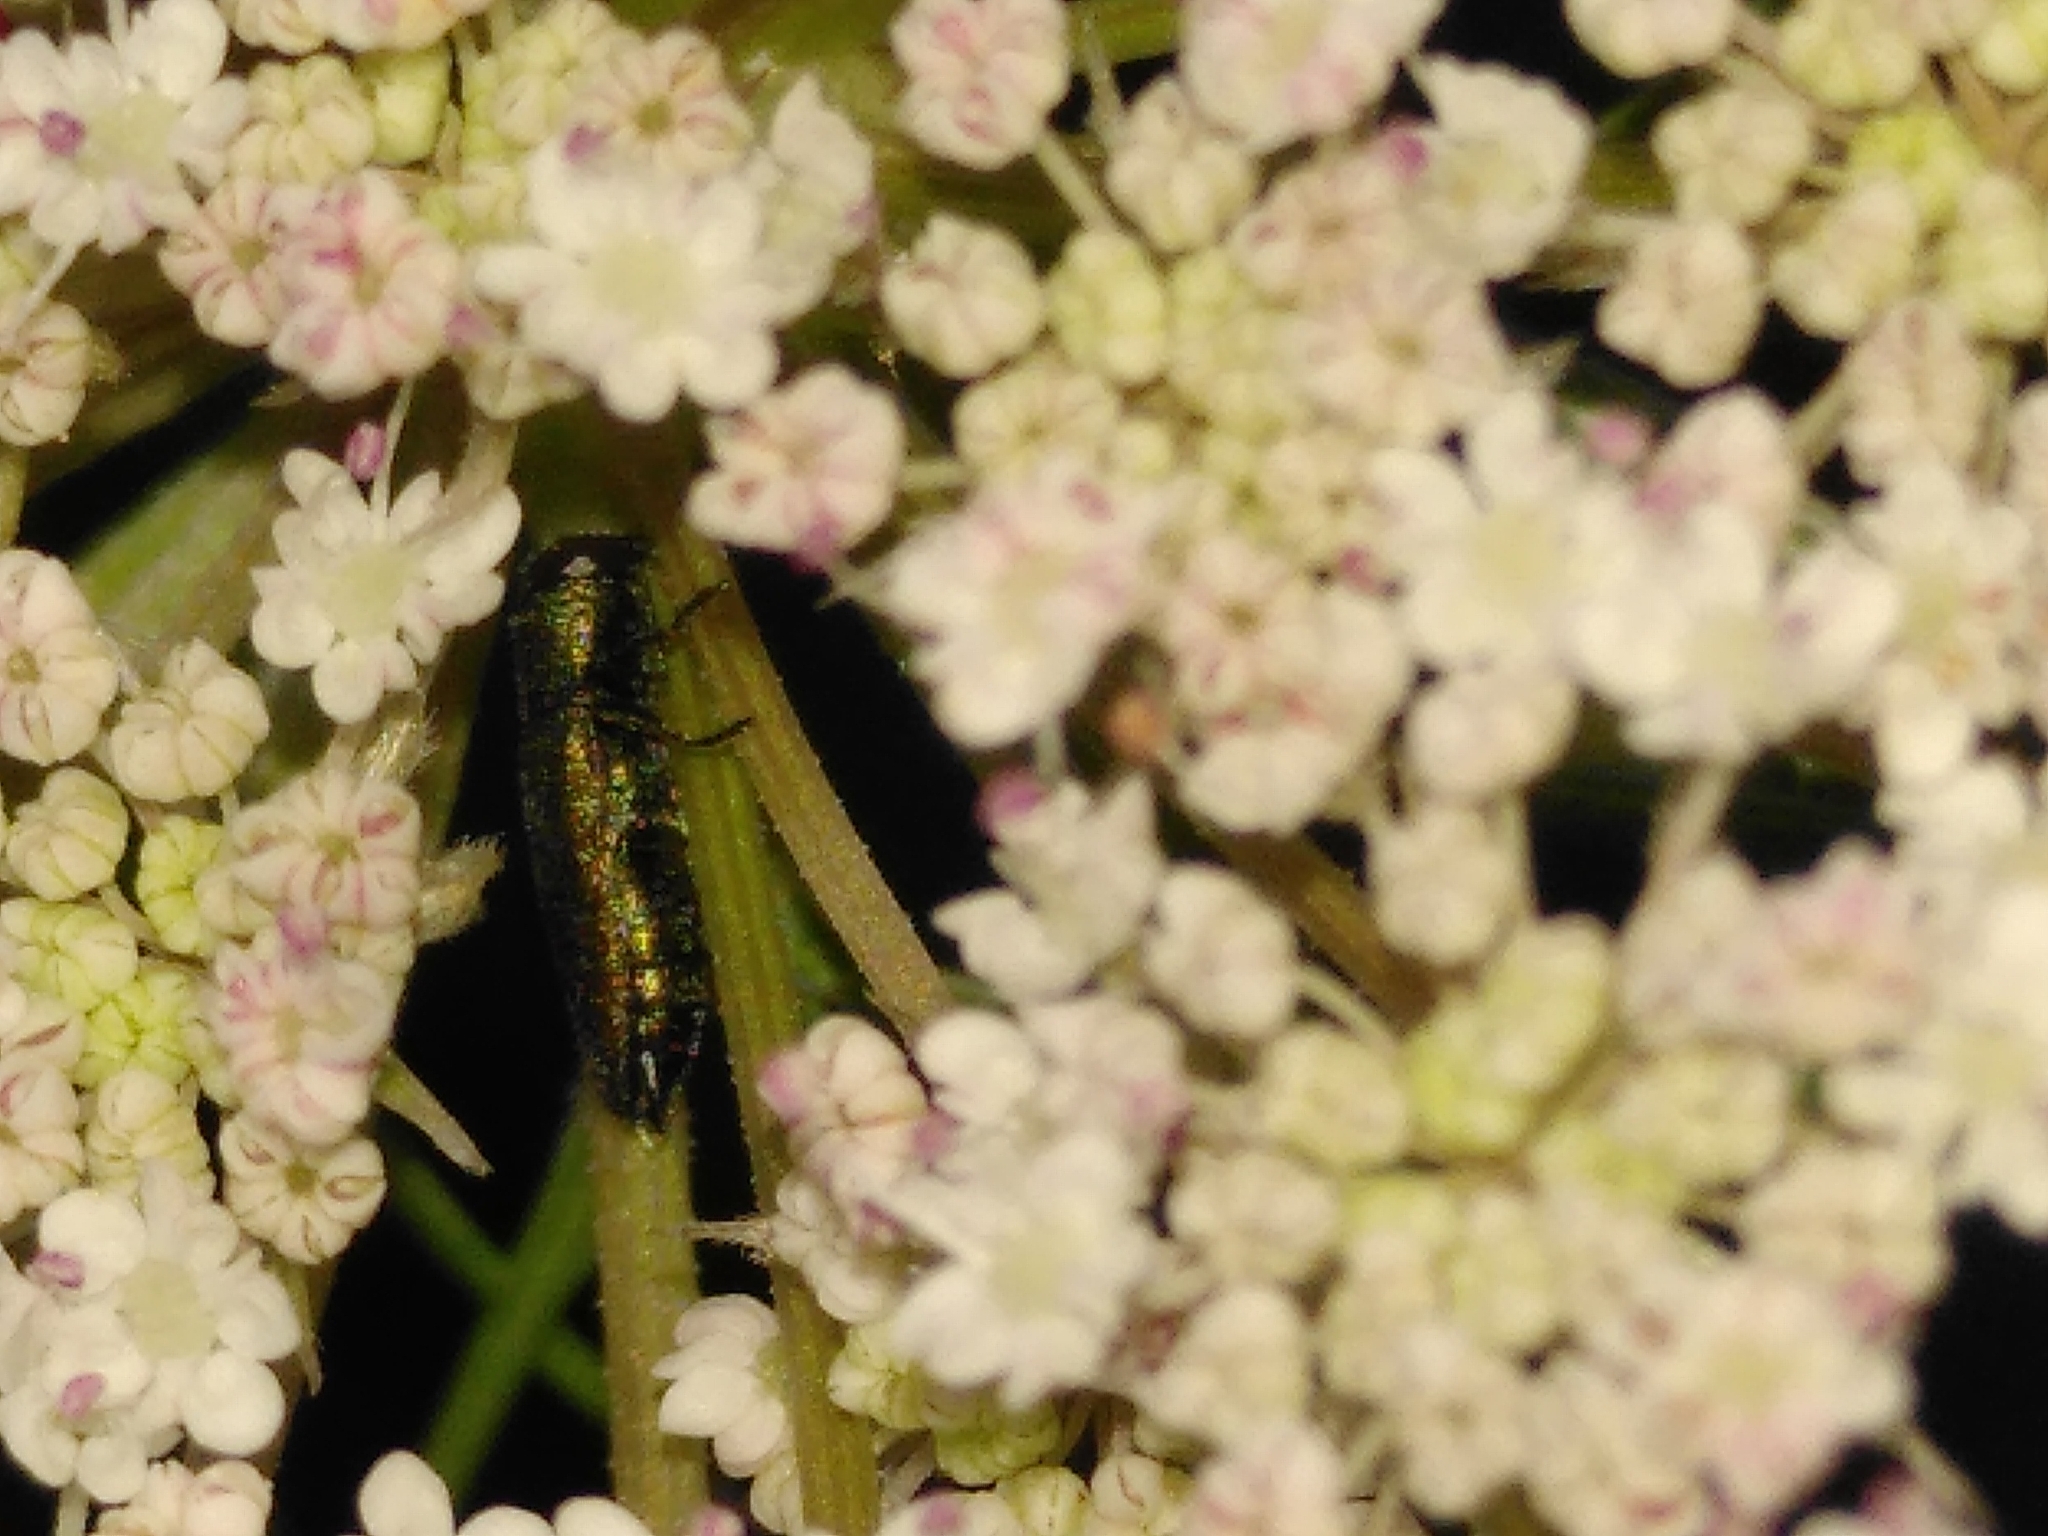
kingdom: Animalia
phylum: Arthropoda
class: Insecta
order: Coleoptera
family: Buprestidae
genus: Anthaxia
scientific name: Anthaxia millefolii
